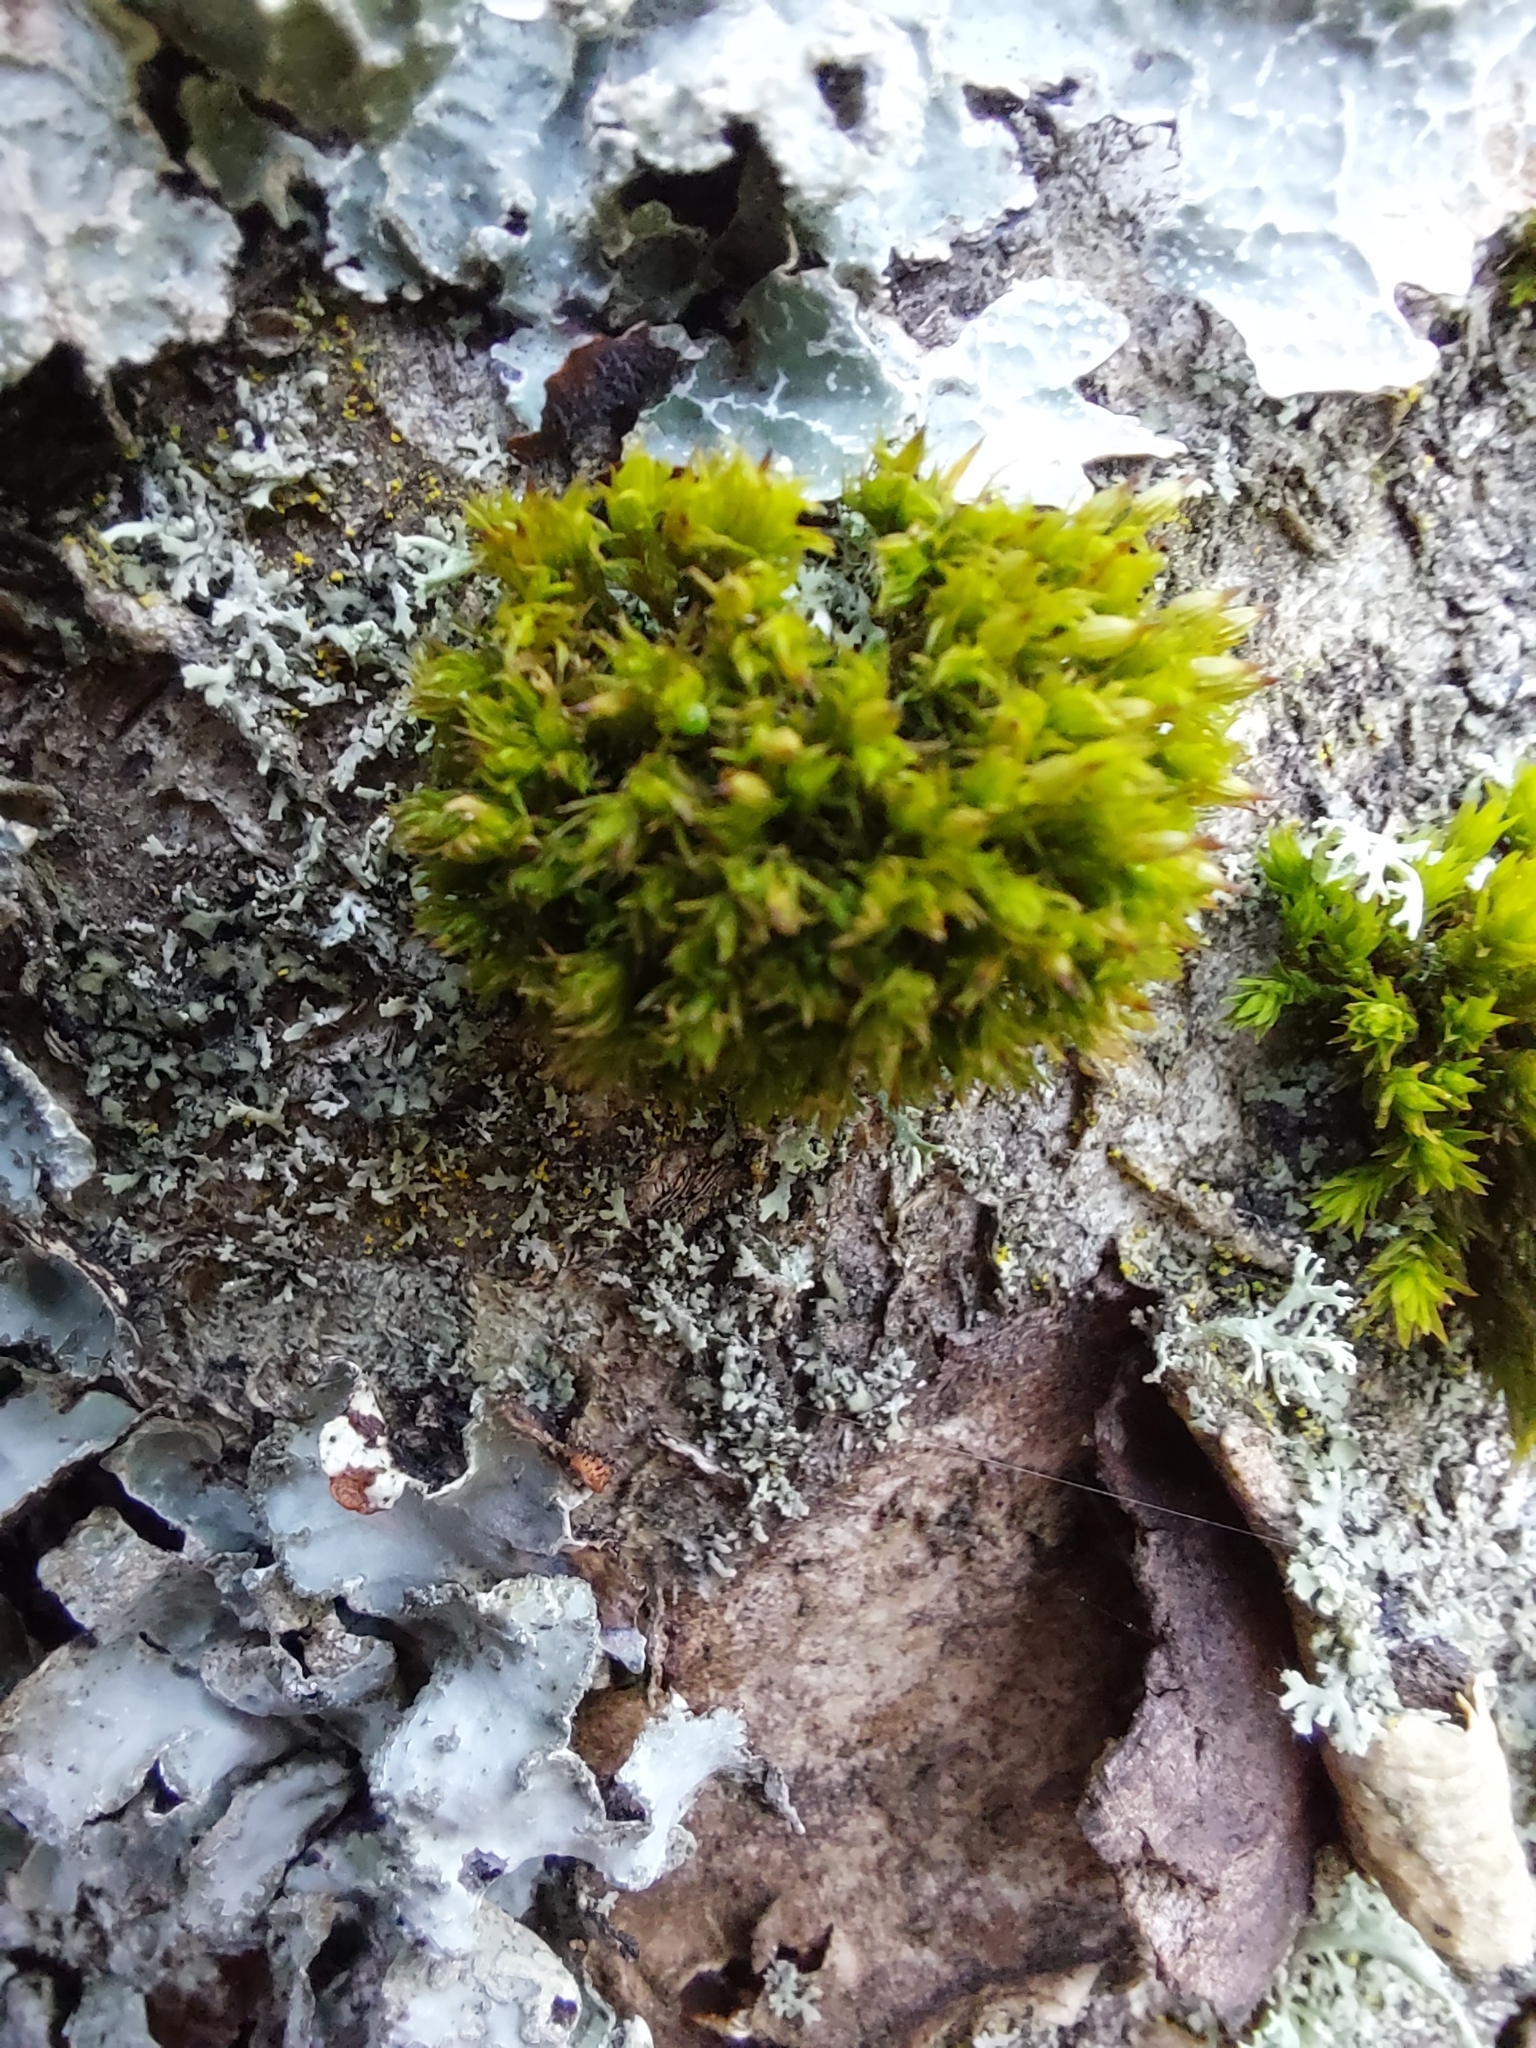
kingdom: Plantae
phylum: Bryophyta
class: Bryopsida
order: Orthotrichales
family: Orthotrichaceae
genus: Orthotrichum
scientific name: Orthotrichum stramineum
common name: Straw bristle-moss
